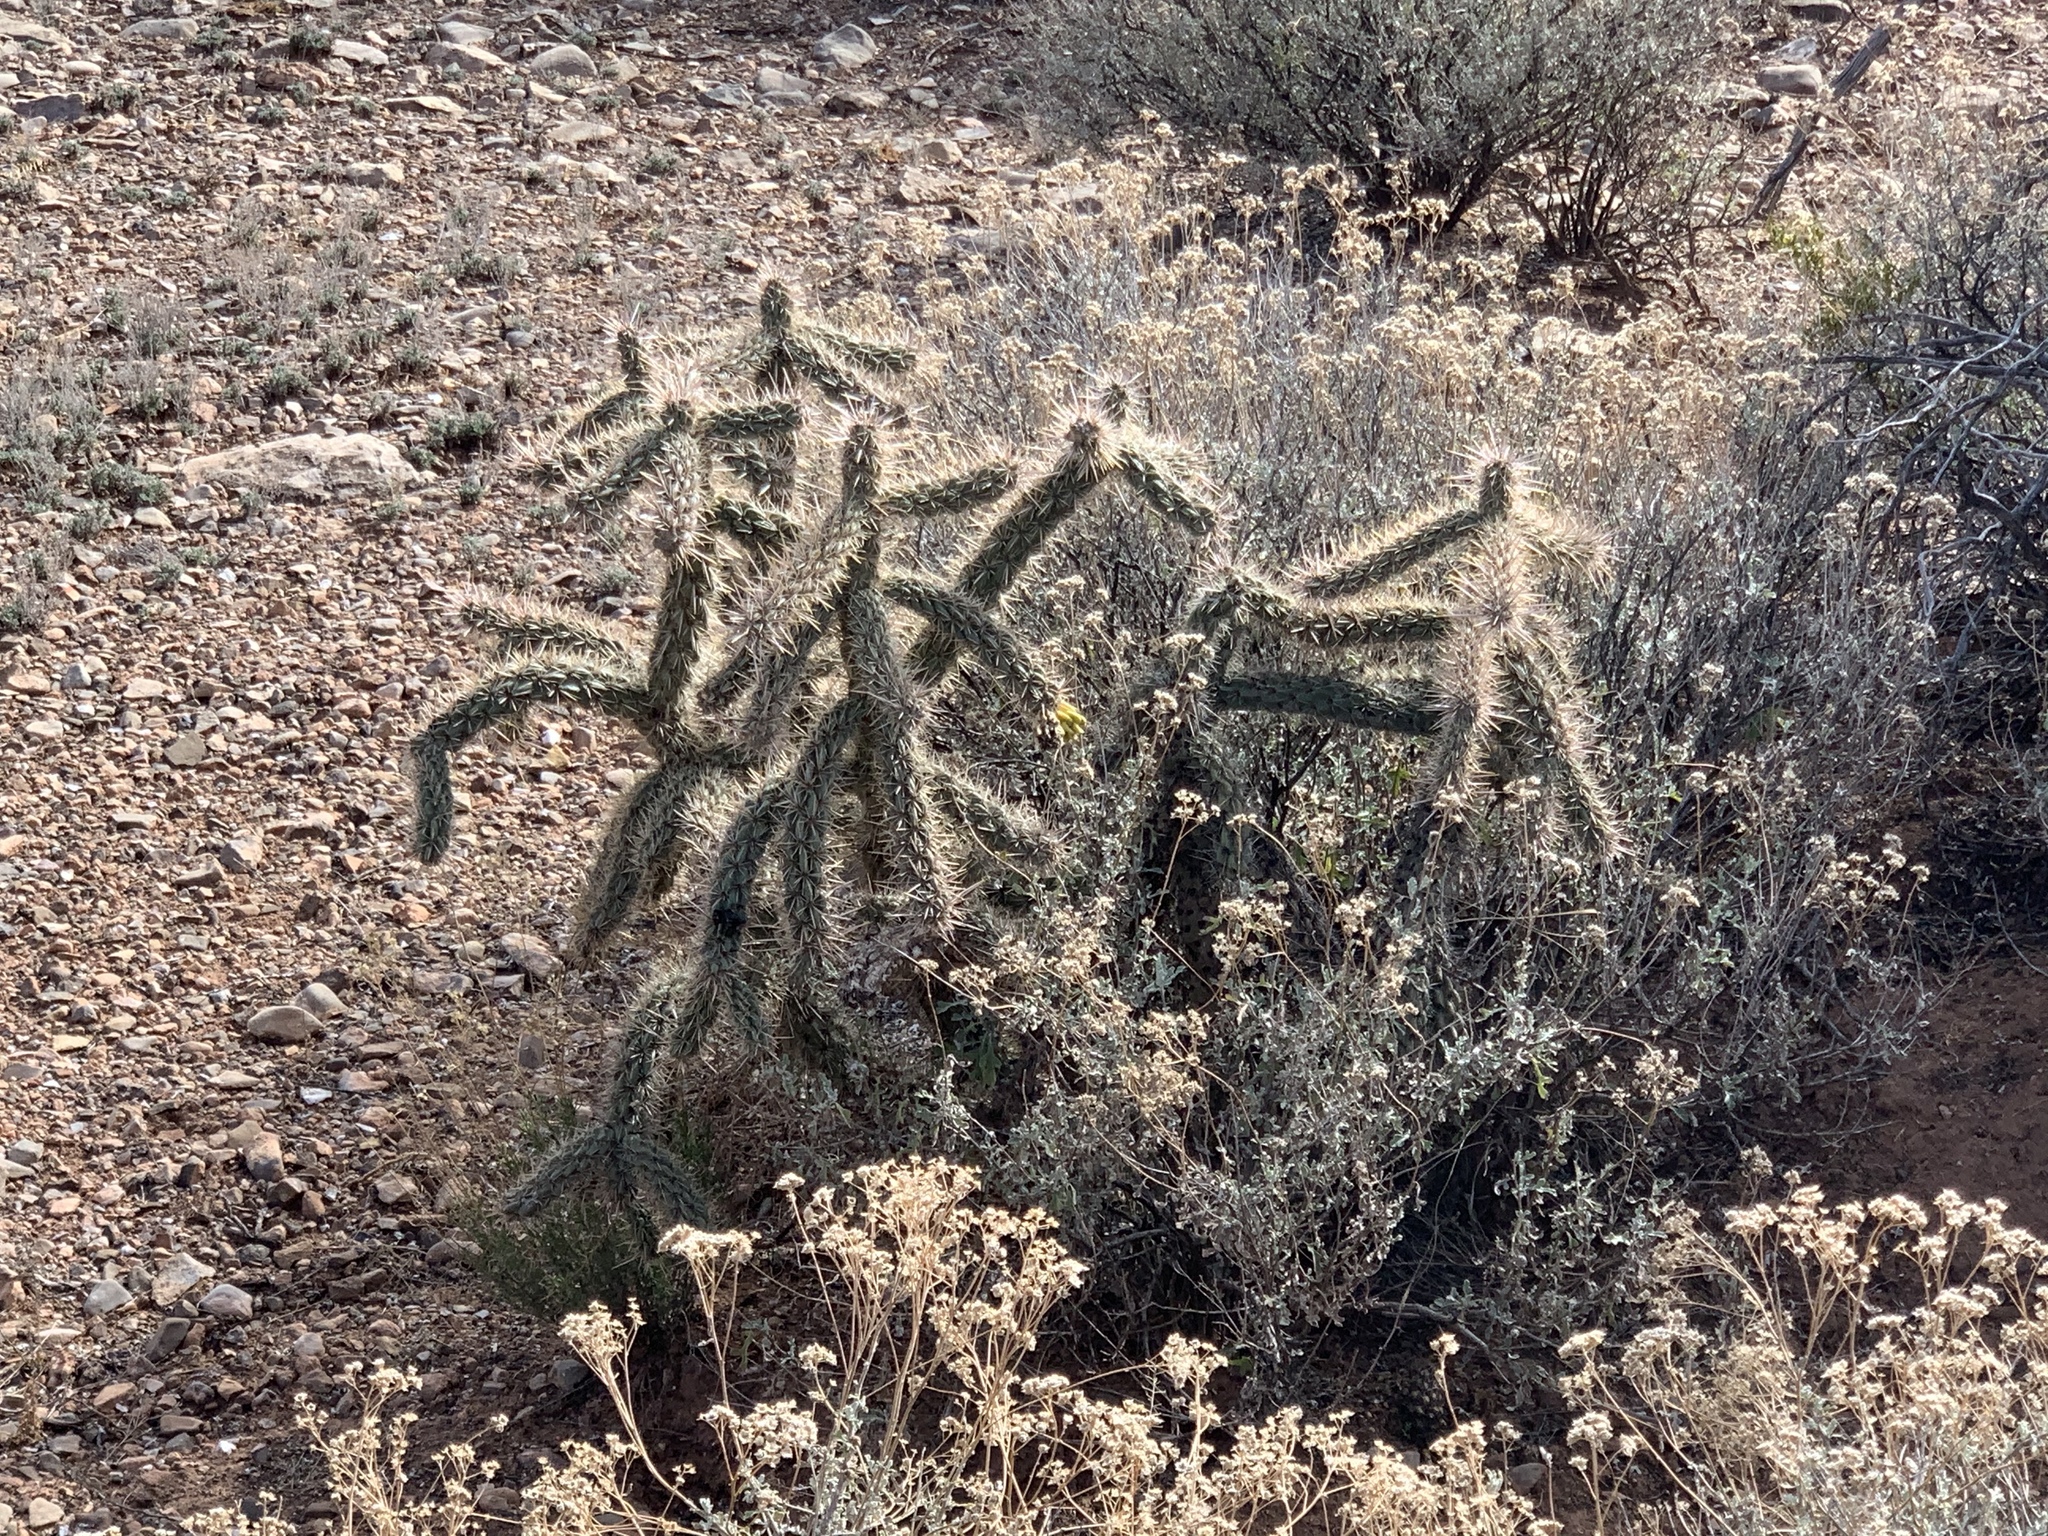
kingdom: Plantae
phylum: Tracheophyta
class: Magnoliopsida
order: Caryophyllales
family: Cactaceae
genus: Cylindropuntia
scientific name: Cylindropuntia imbricata
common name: Candelabrum cactus
